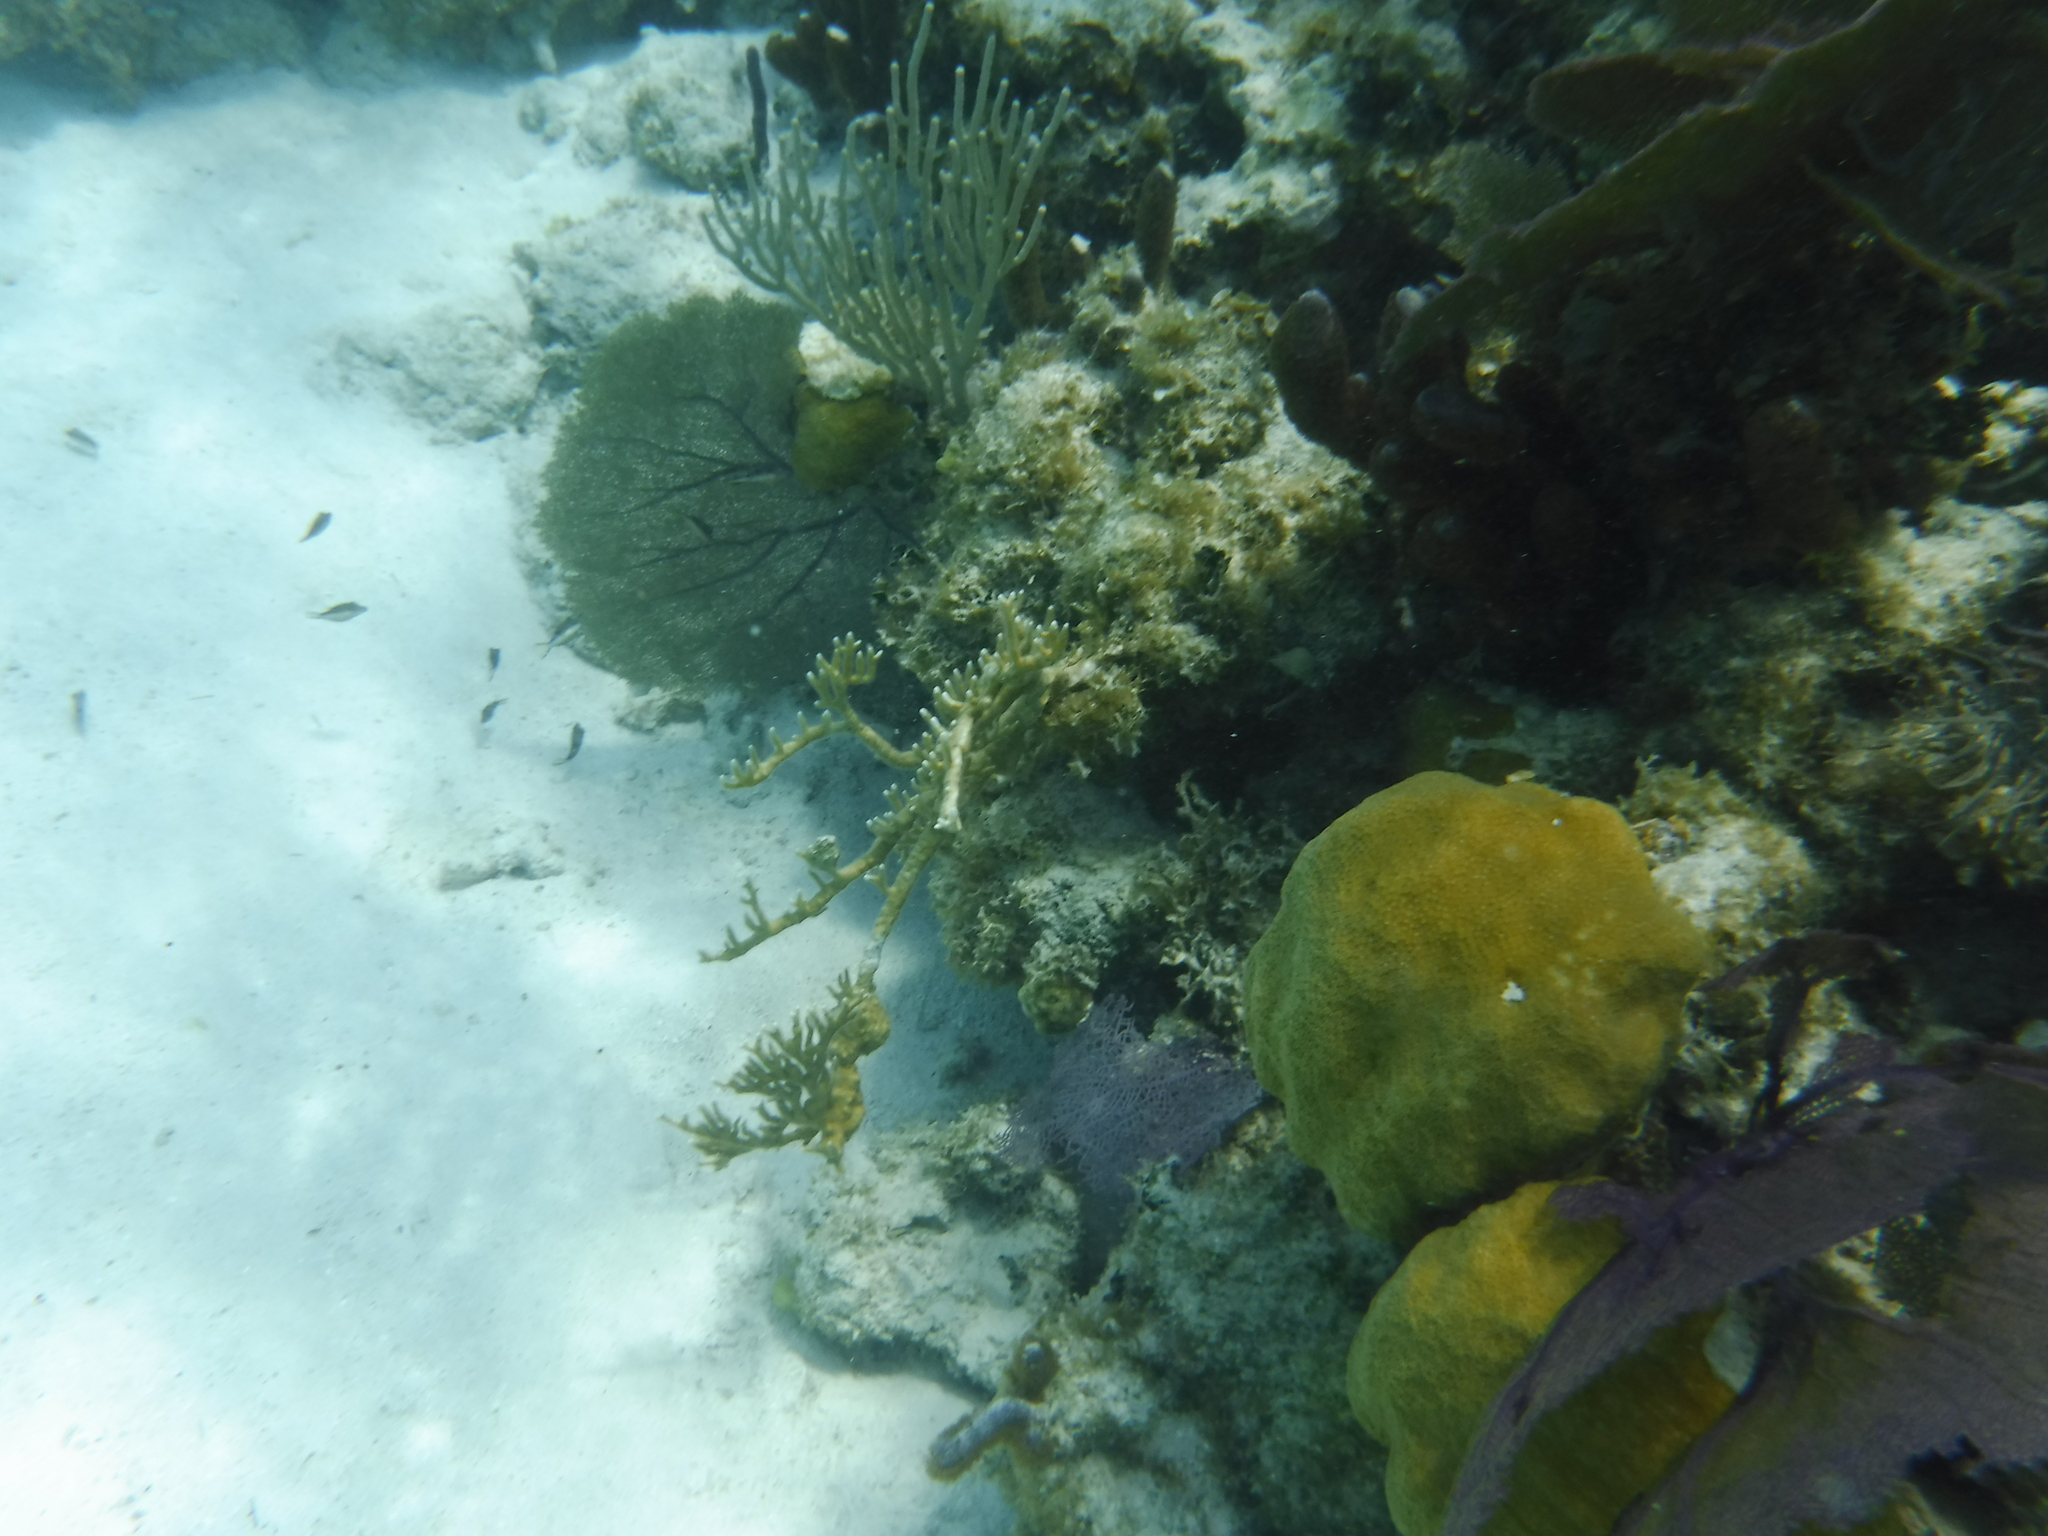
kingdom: Animalia
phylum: Cnidaria
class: Anthozoa
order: Malacalcyonacea
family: Gorgoniidae
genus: Gorgonia
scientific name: Gorgonia
